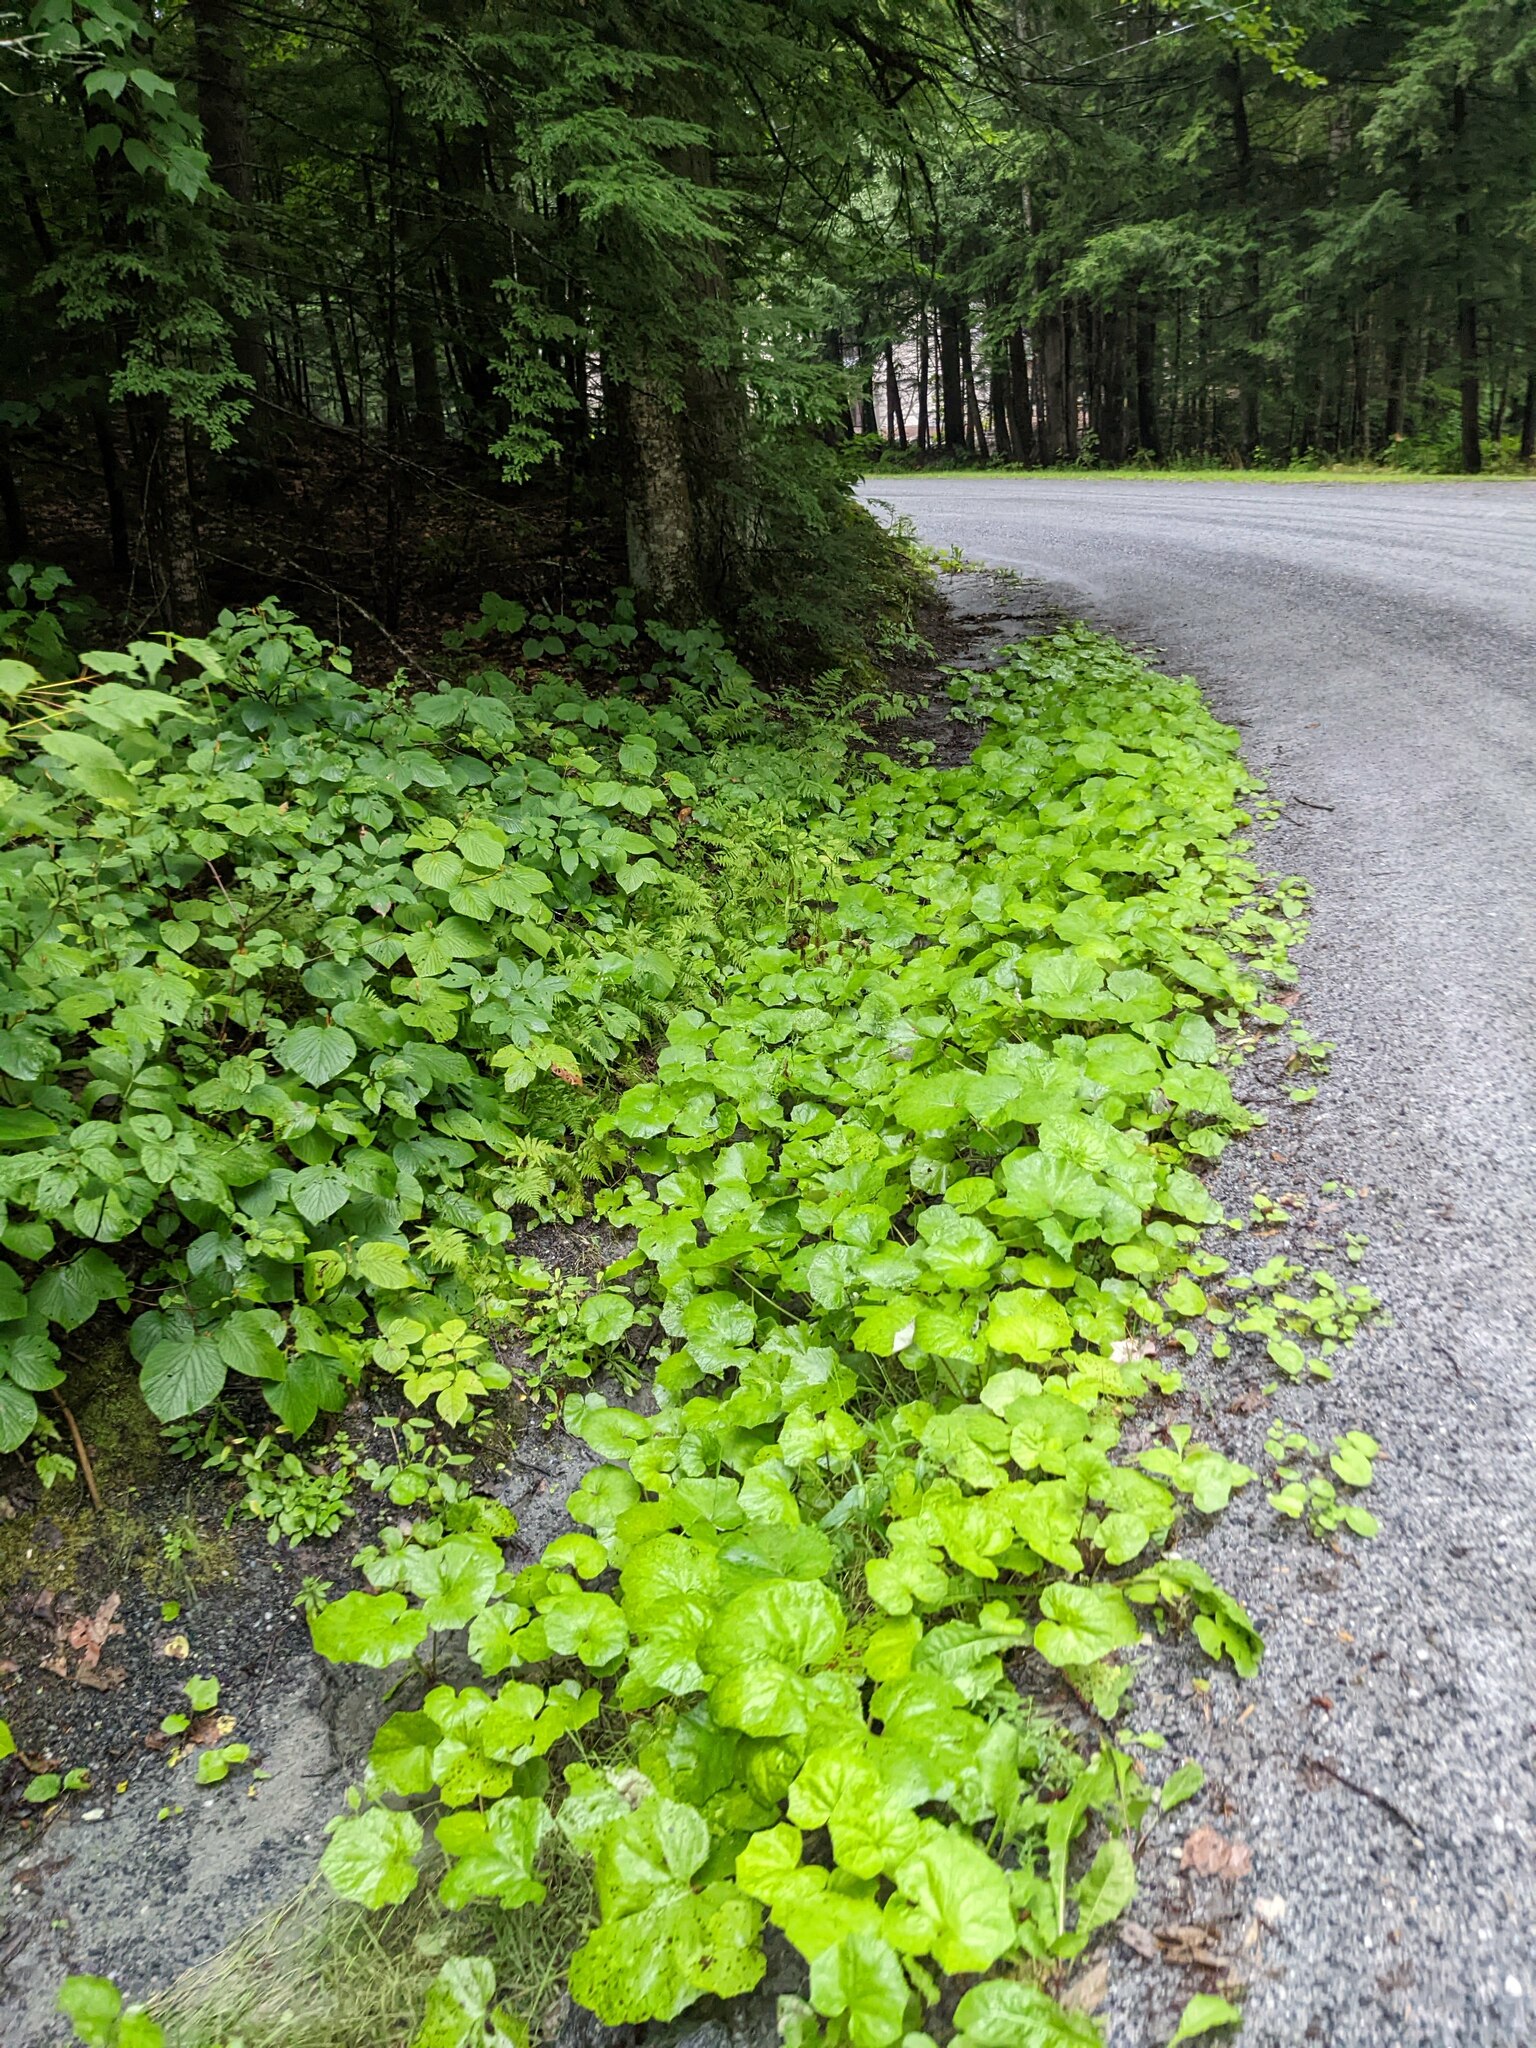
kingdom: Plantae
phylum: Tracheophyta
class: Magnoliopsida
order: Asterales
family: Asteraceae
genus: Tussilago
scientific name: Tussilago farfara
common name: Coltsfoot
